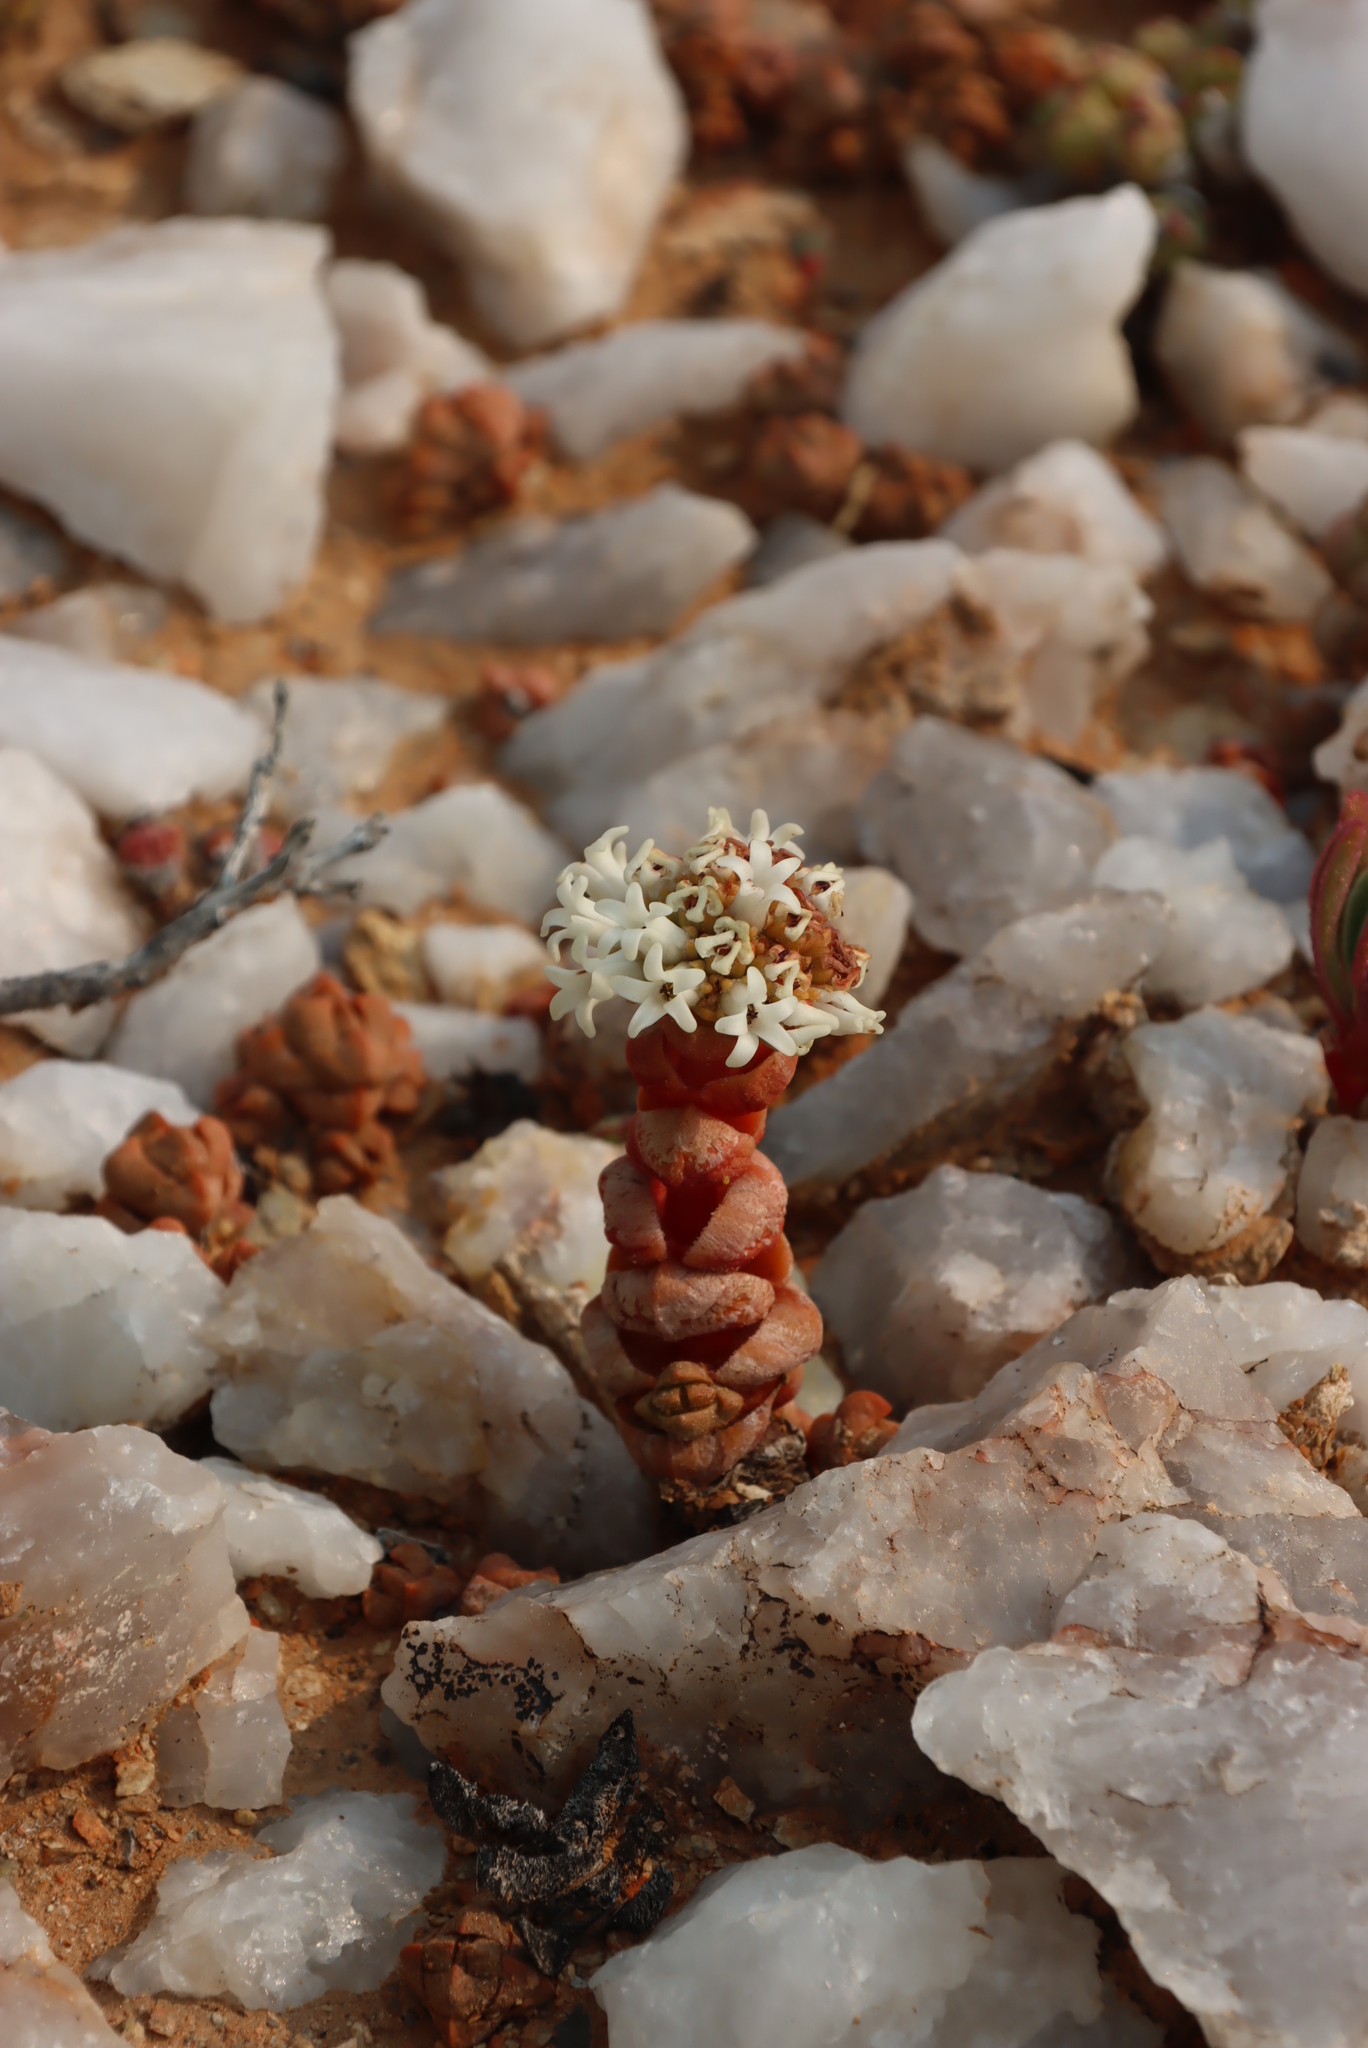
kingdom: Plantae
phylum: Tracheophyta
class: Magnoliopsida
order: Saxifragales
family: Crassulaceae
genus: Crassula
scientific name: Crassula columnaris
